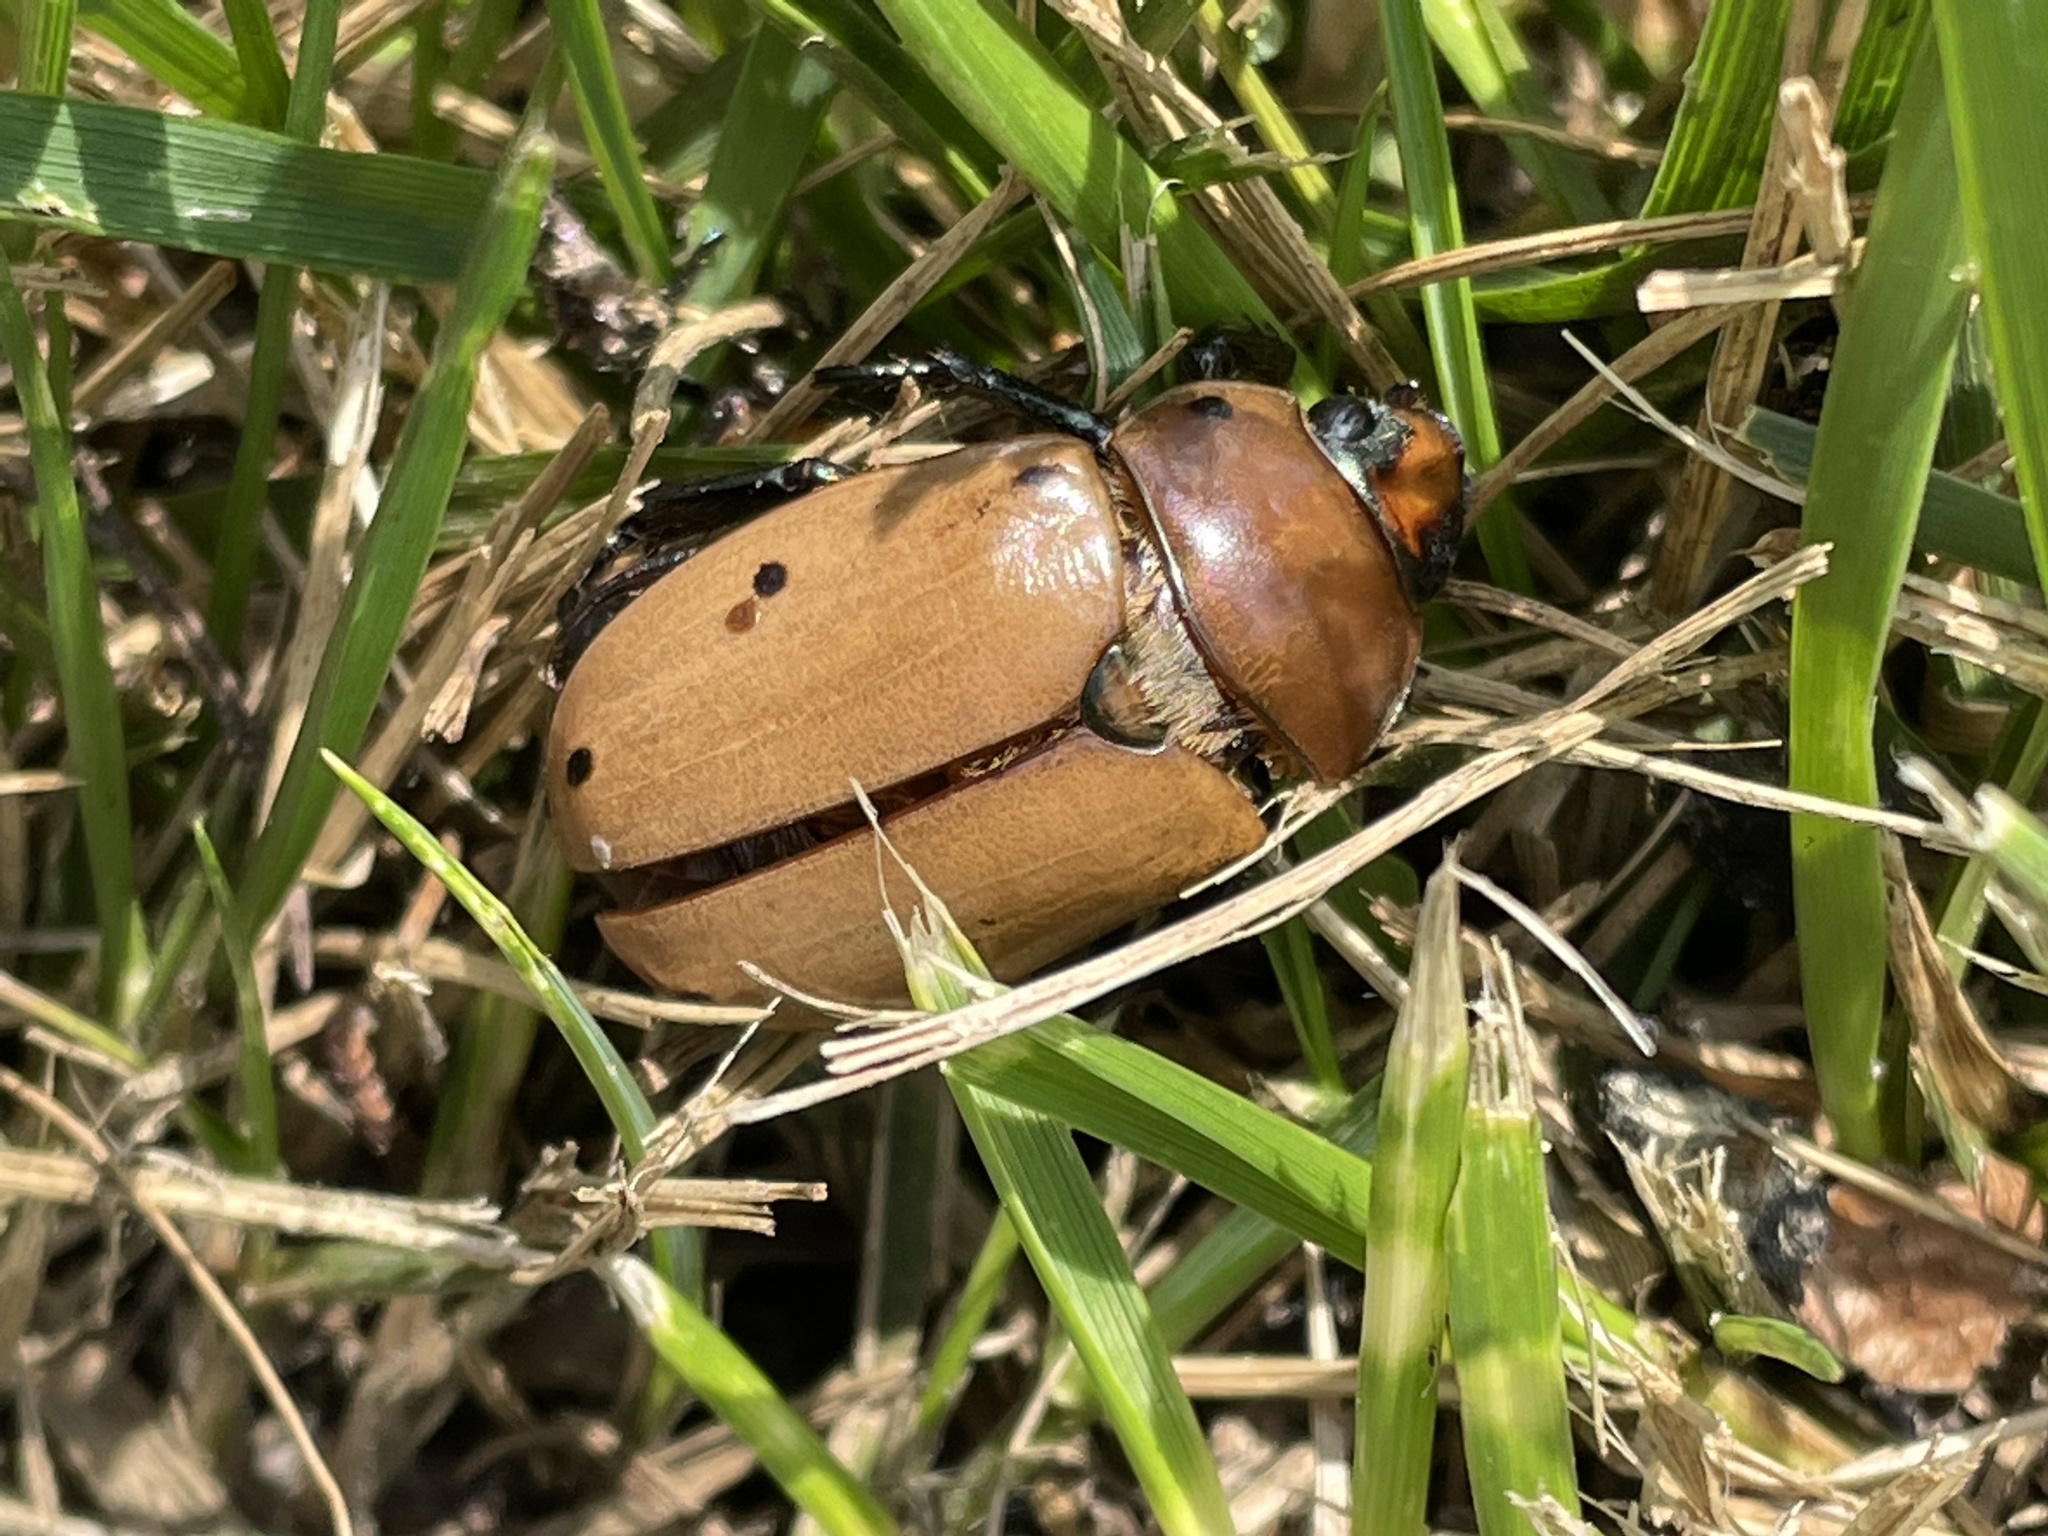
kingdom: Animalia
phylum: Arthropoda
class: Insecta
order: Coleoptera
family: Scarabaeidae
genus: Pelidnota
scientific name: Pelidnota punctata
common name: Grapevine beetle
